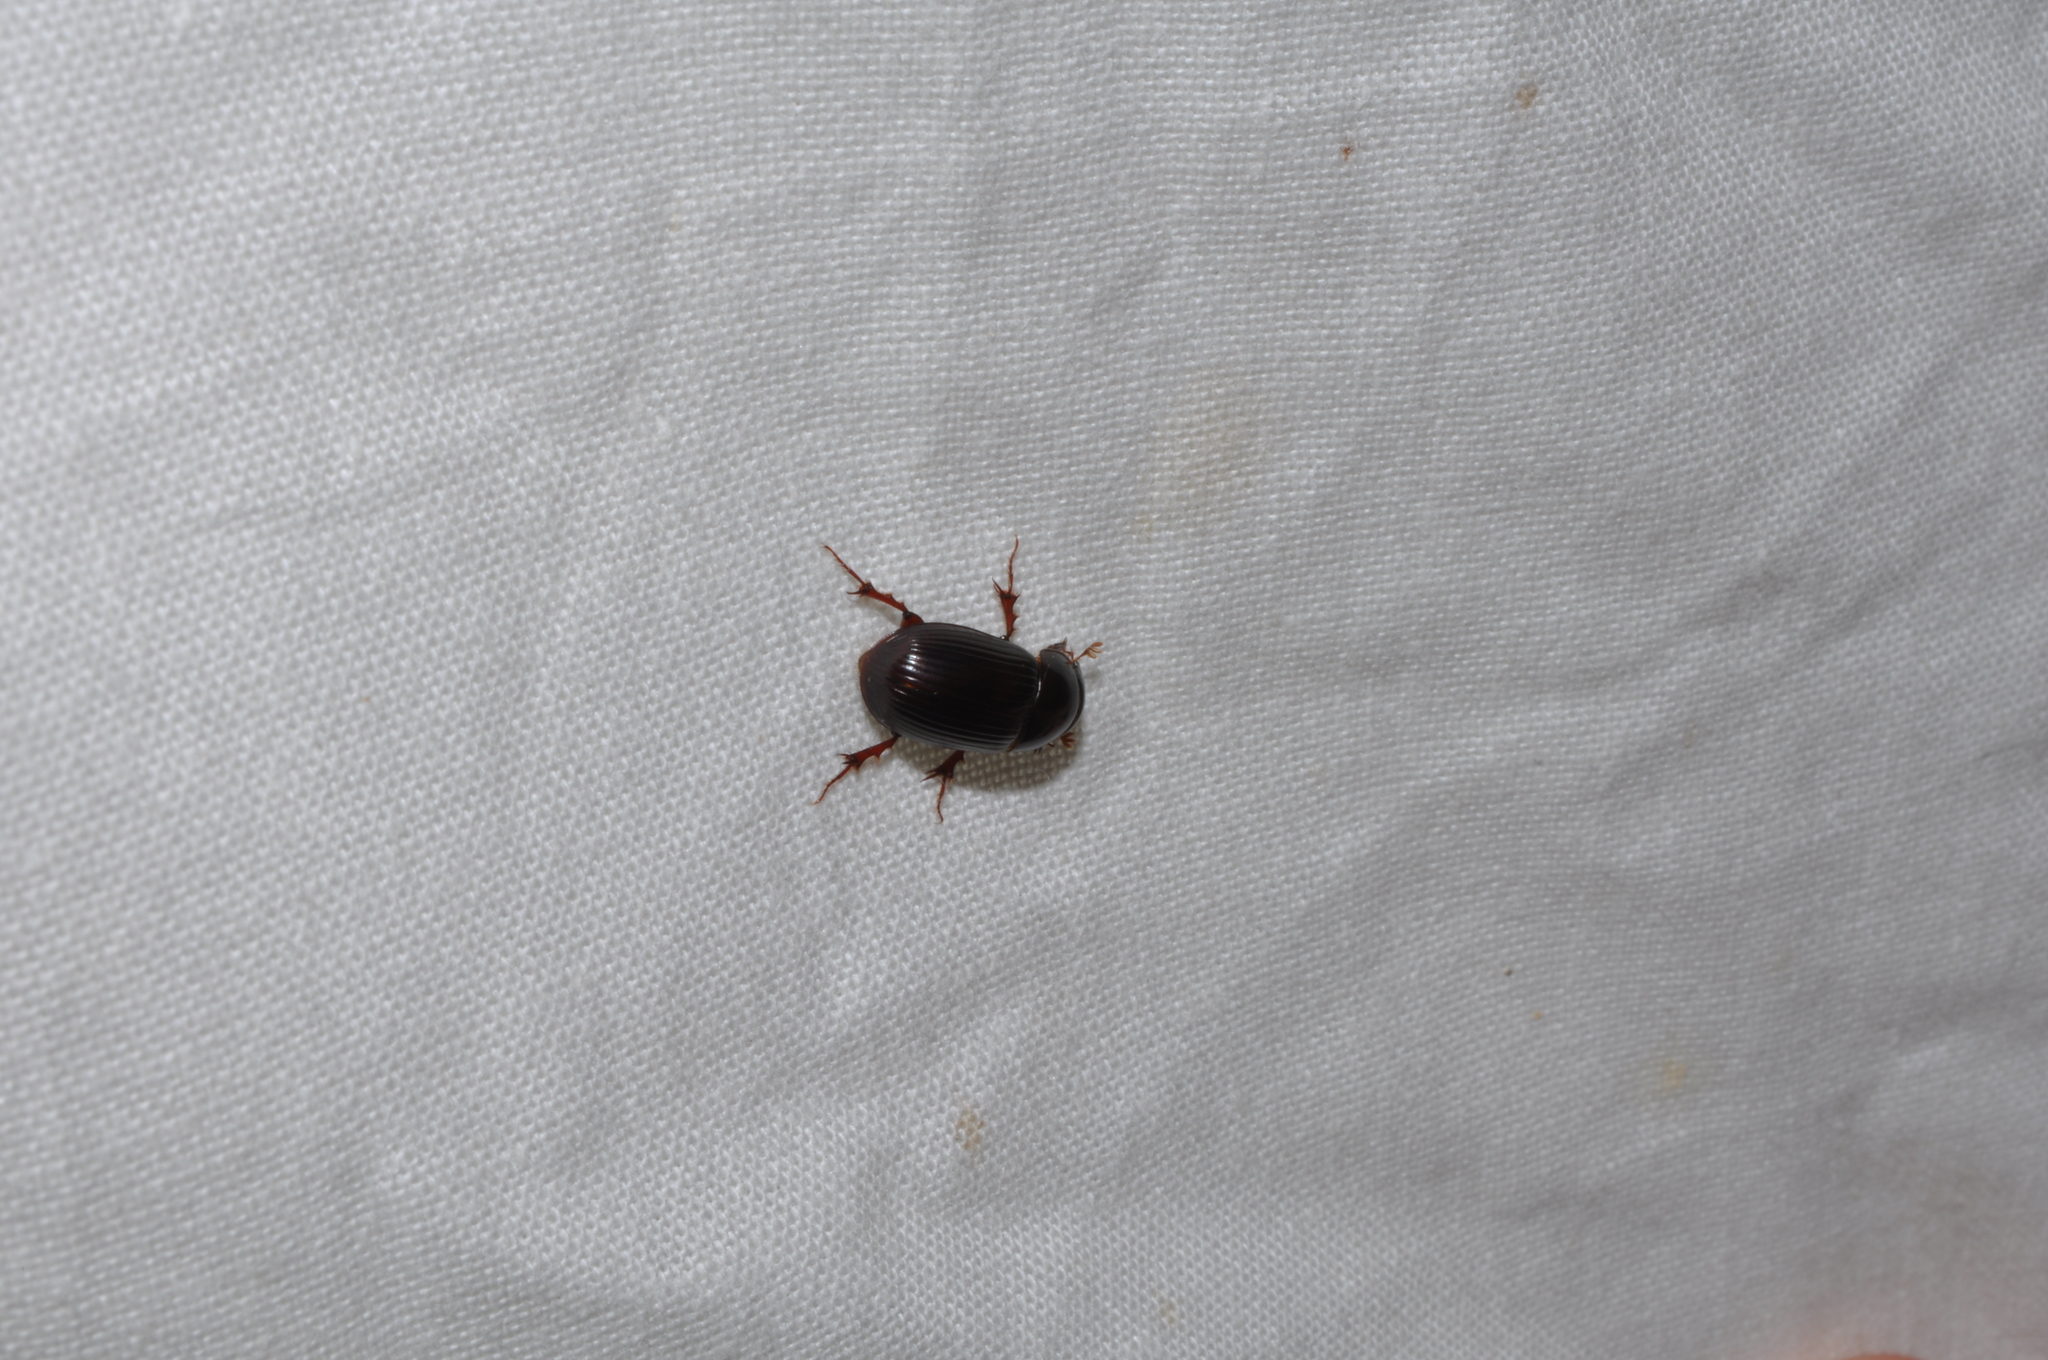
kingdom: Animalia
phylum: Arthropoda
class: Insecta
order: Coleoptera
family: Scarabaeidae
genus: Acrossus
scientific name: Acrossus rufipes
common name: Night-flying dung beetle
